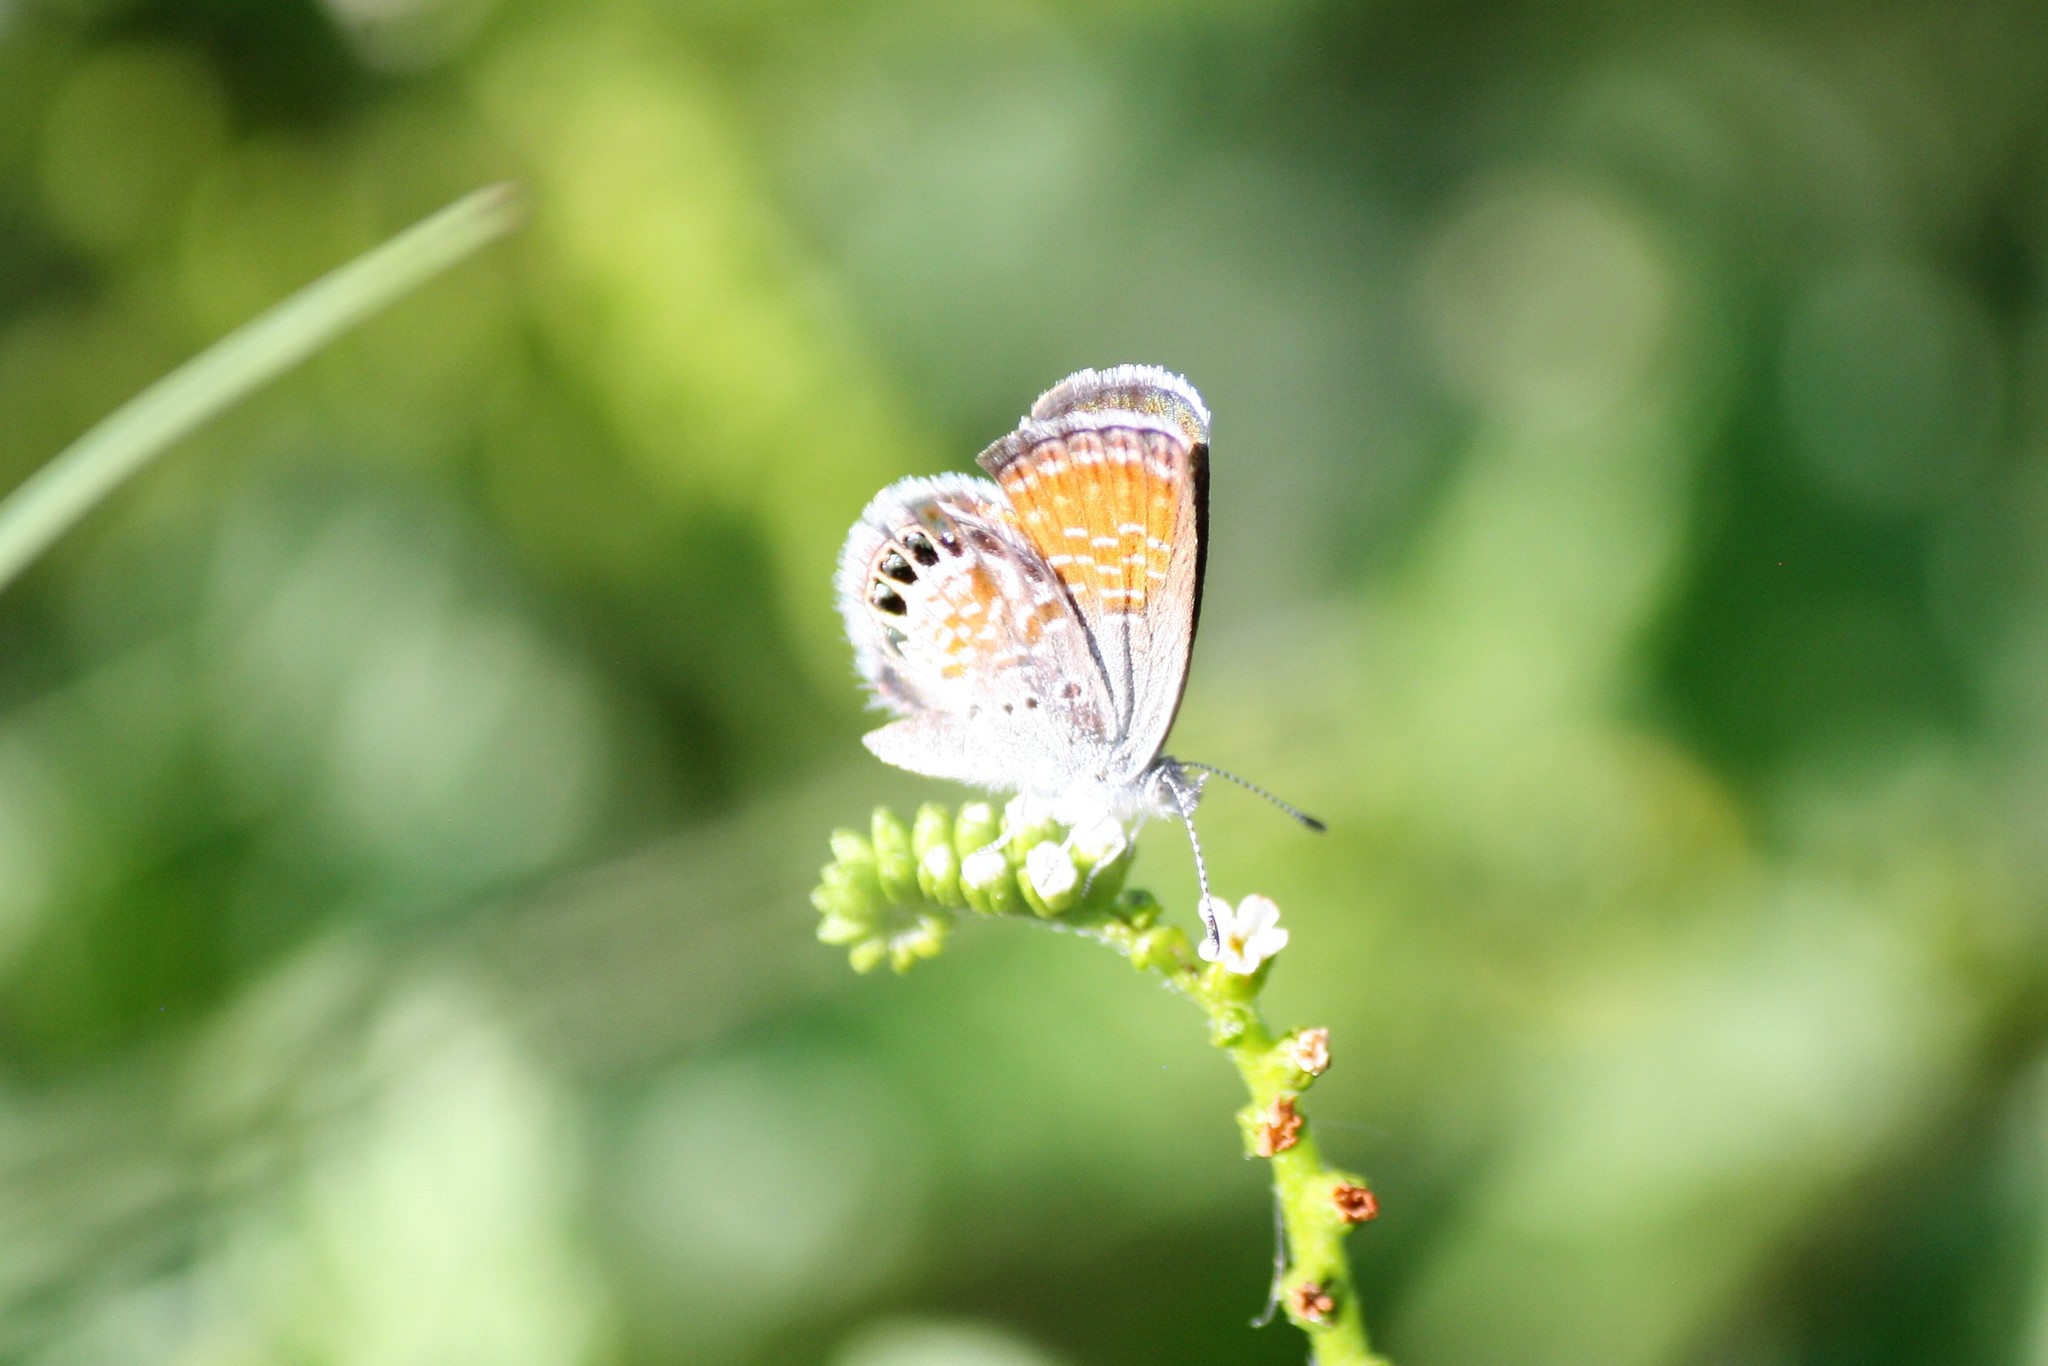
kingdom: Animalia
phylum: Arthropoda
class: Insecta
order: Lepidoptera
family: Lycaenidae
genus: Brephidium
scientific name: Brephidium exilis
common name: Pygmy blue
